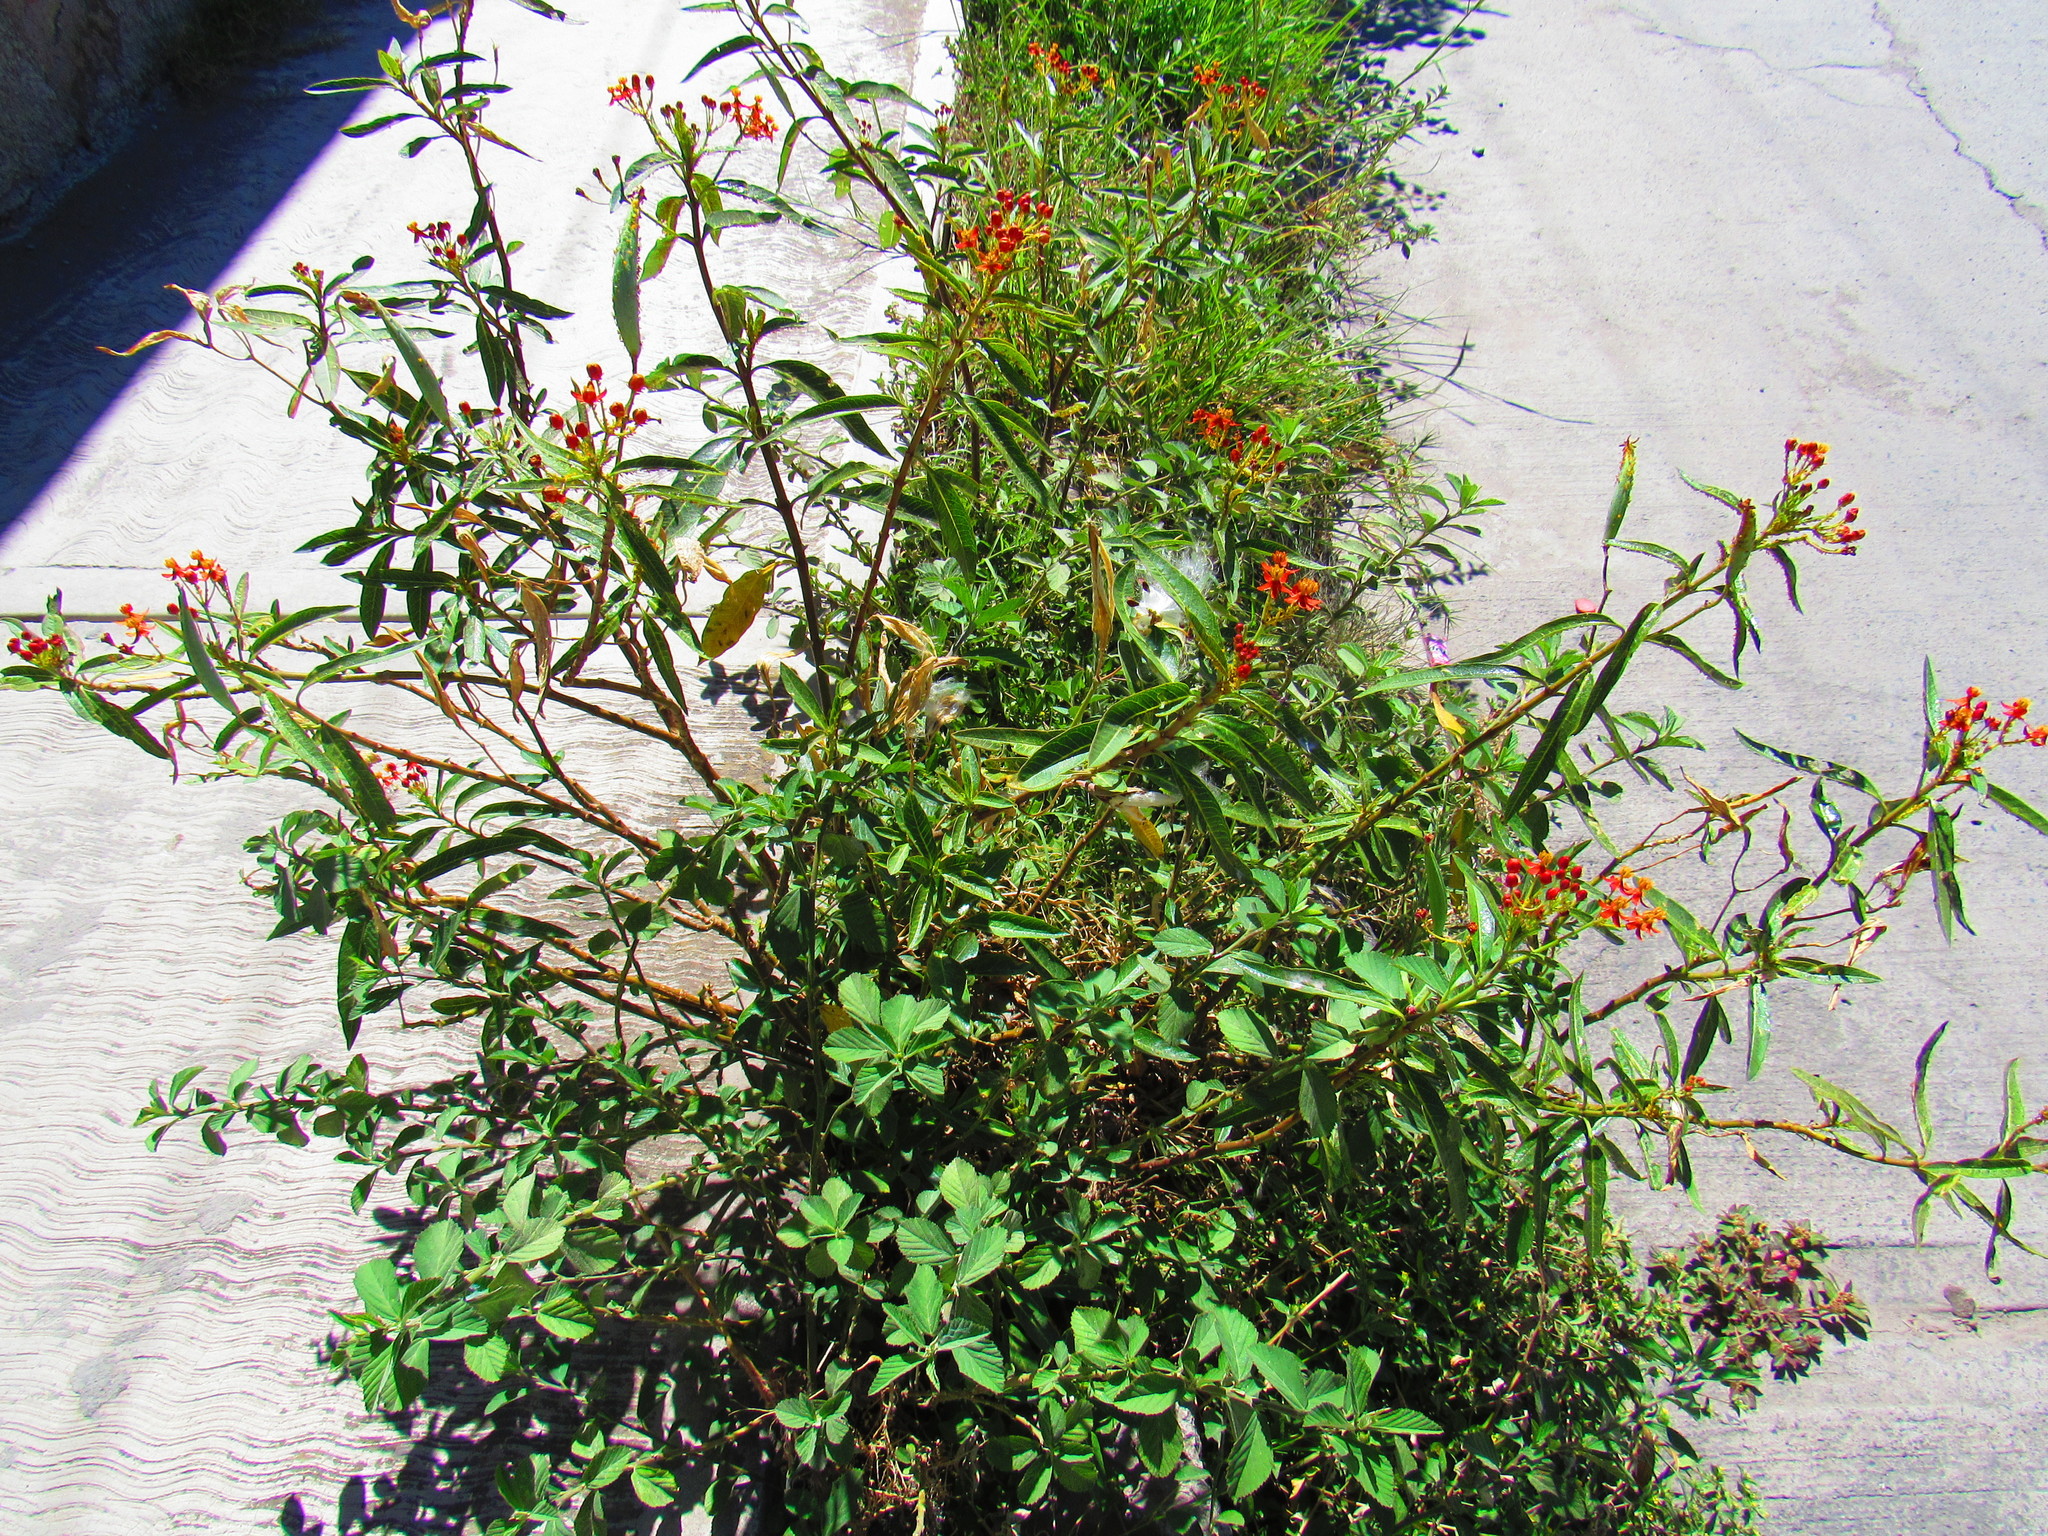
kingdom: Plantae
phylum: Tracheophyta
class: Magnoliopsida
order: Gentianales
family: Apocynaceae
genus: Asclepias
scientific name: Asclepias curassavica
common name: Bloodflower
